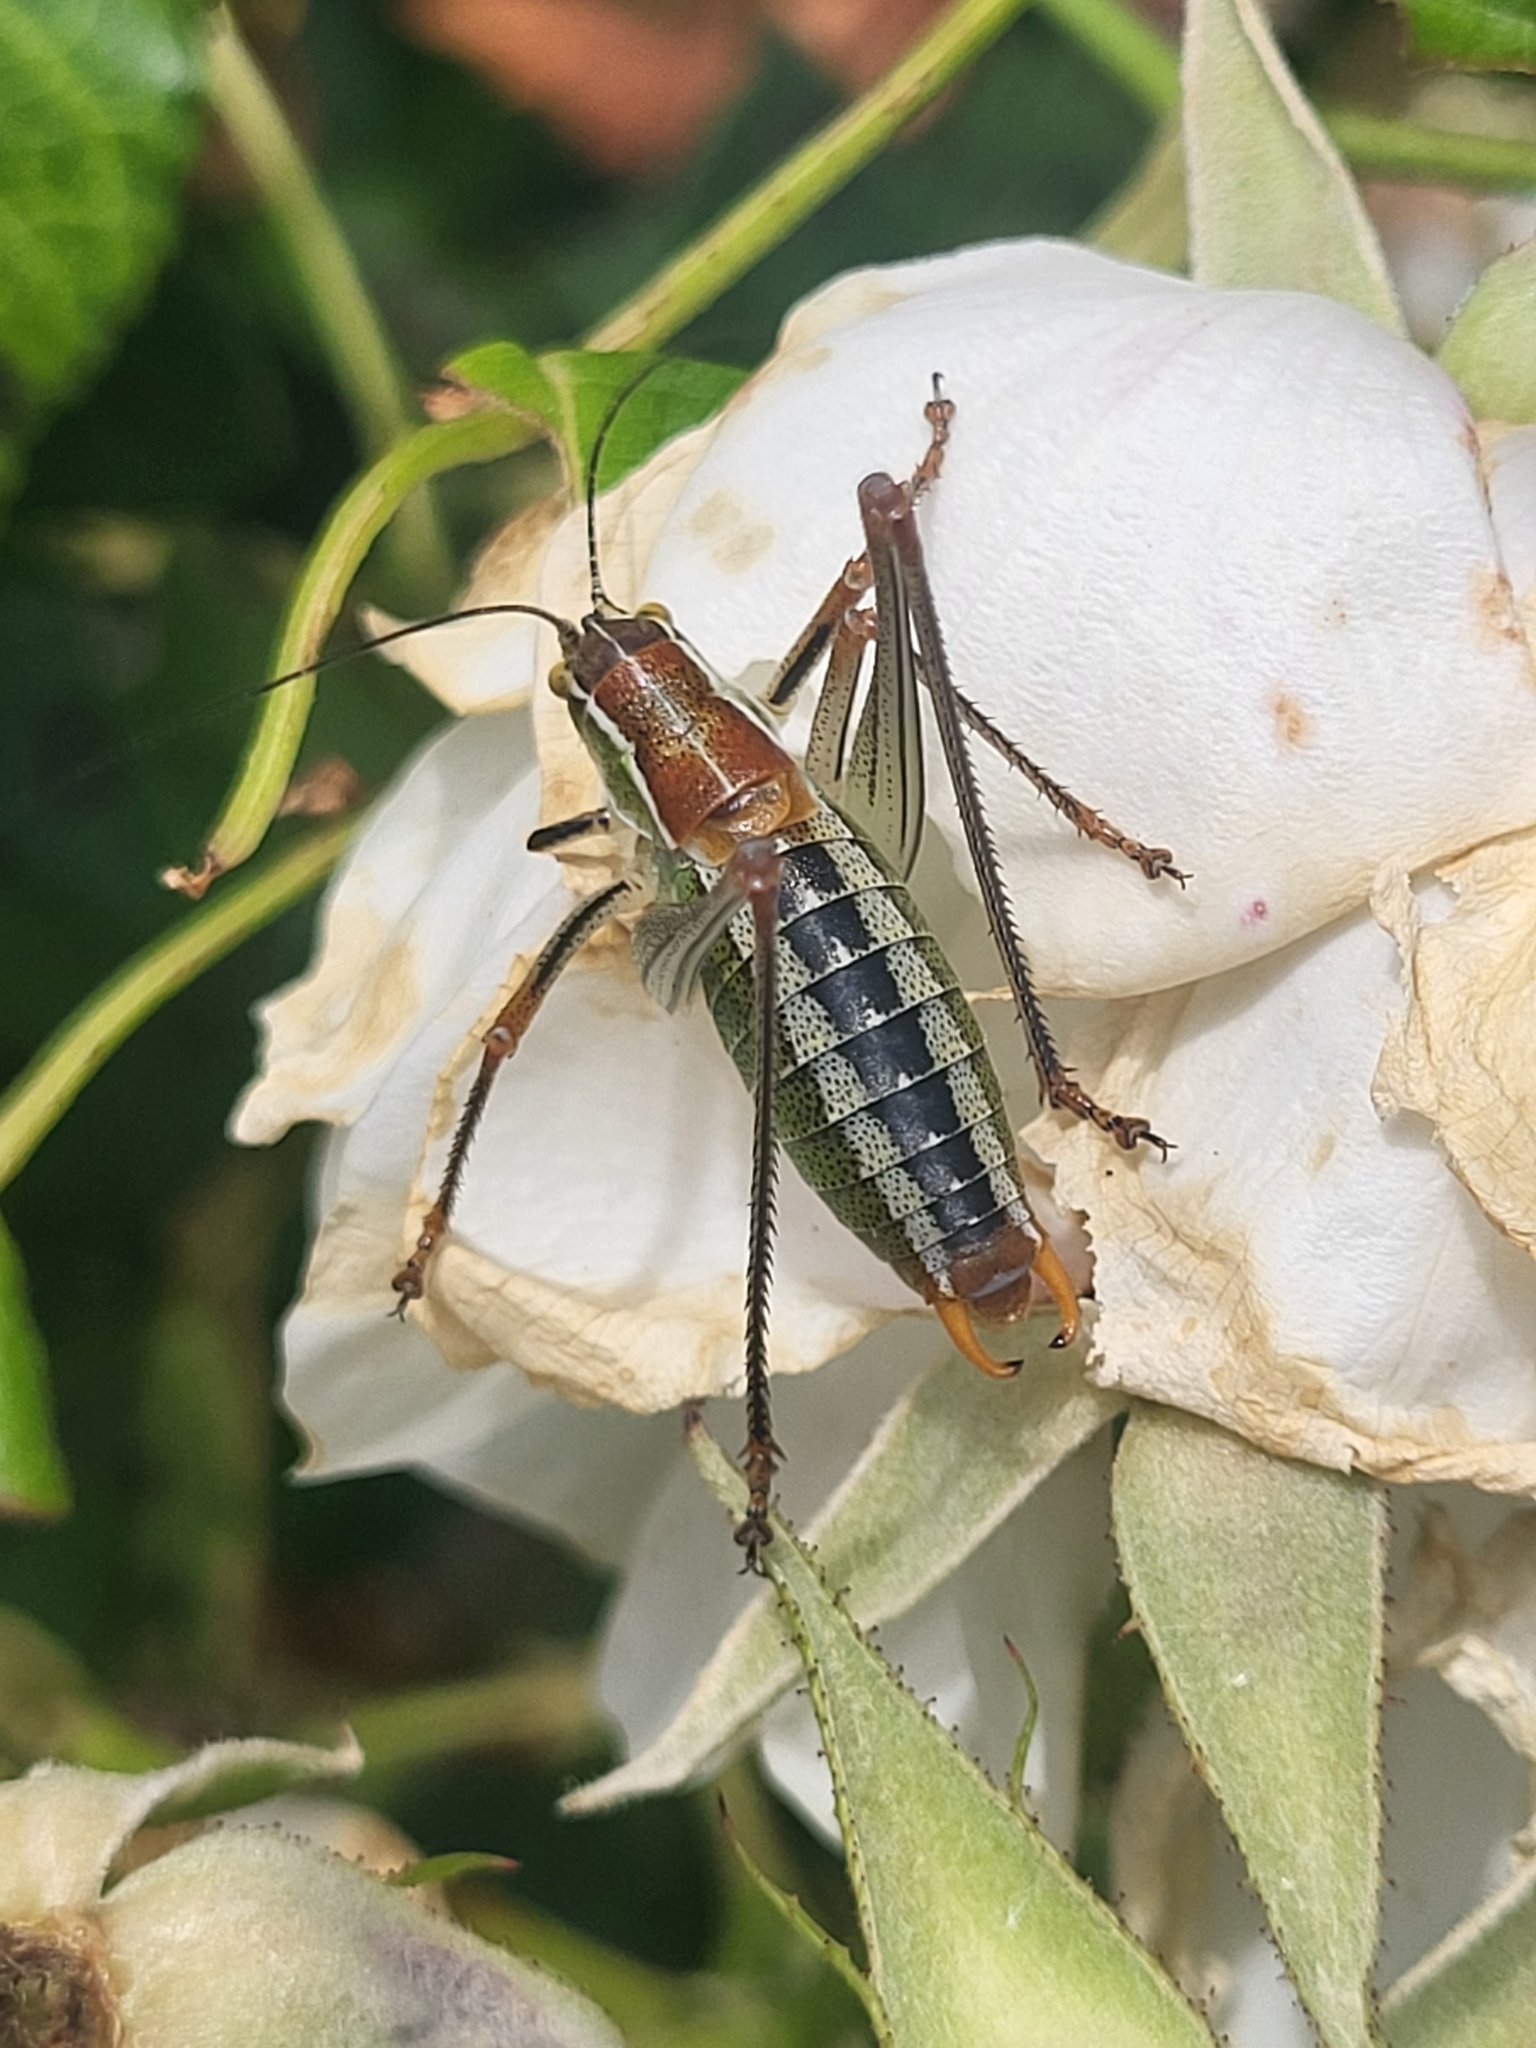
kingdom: Animalia
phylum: Arthropoda
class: Insecta
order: Orthoptera
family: Tettigoniidae
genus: Poecilimon
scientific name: Poecilimon jonicus
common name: Ionian bright bush-cricket
